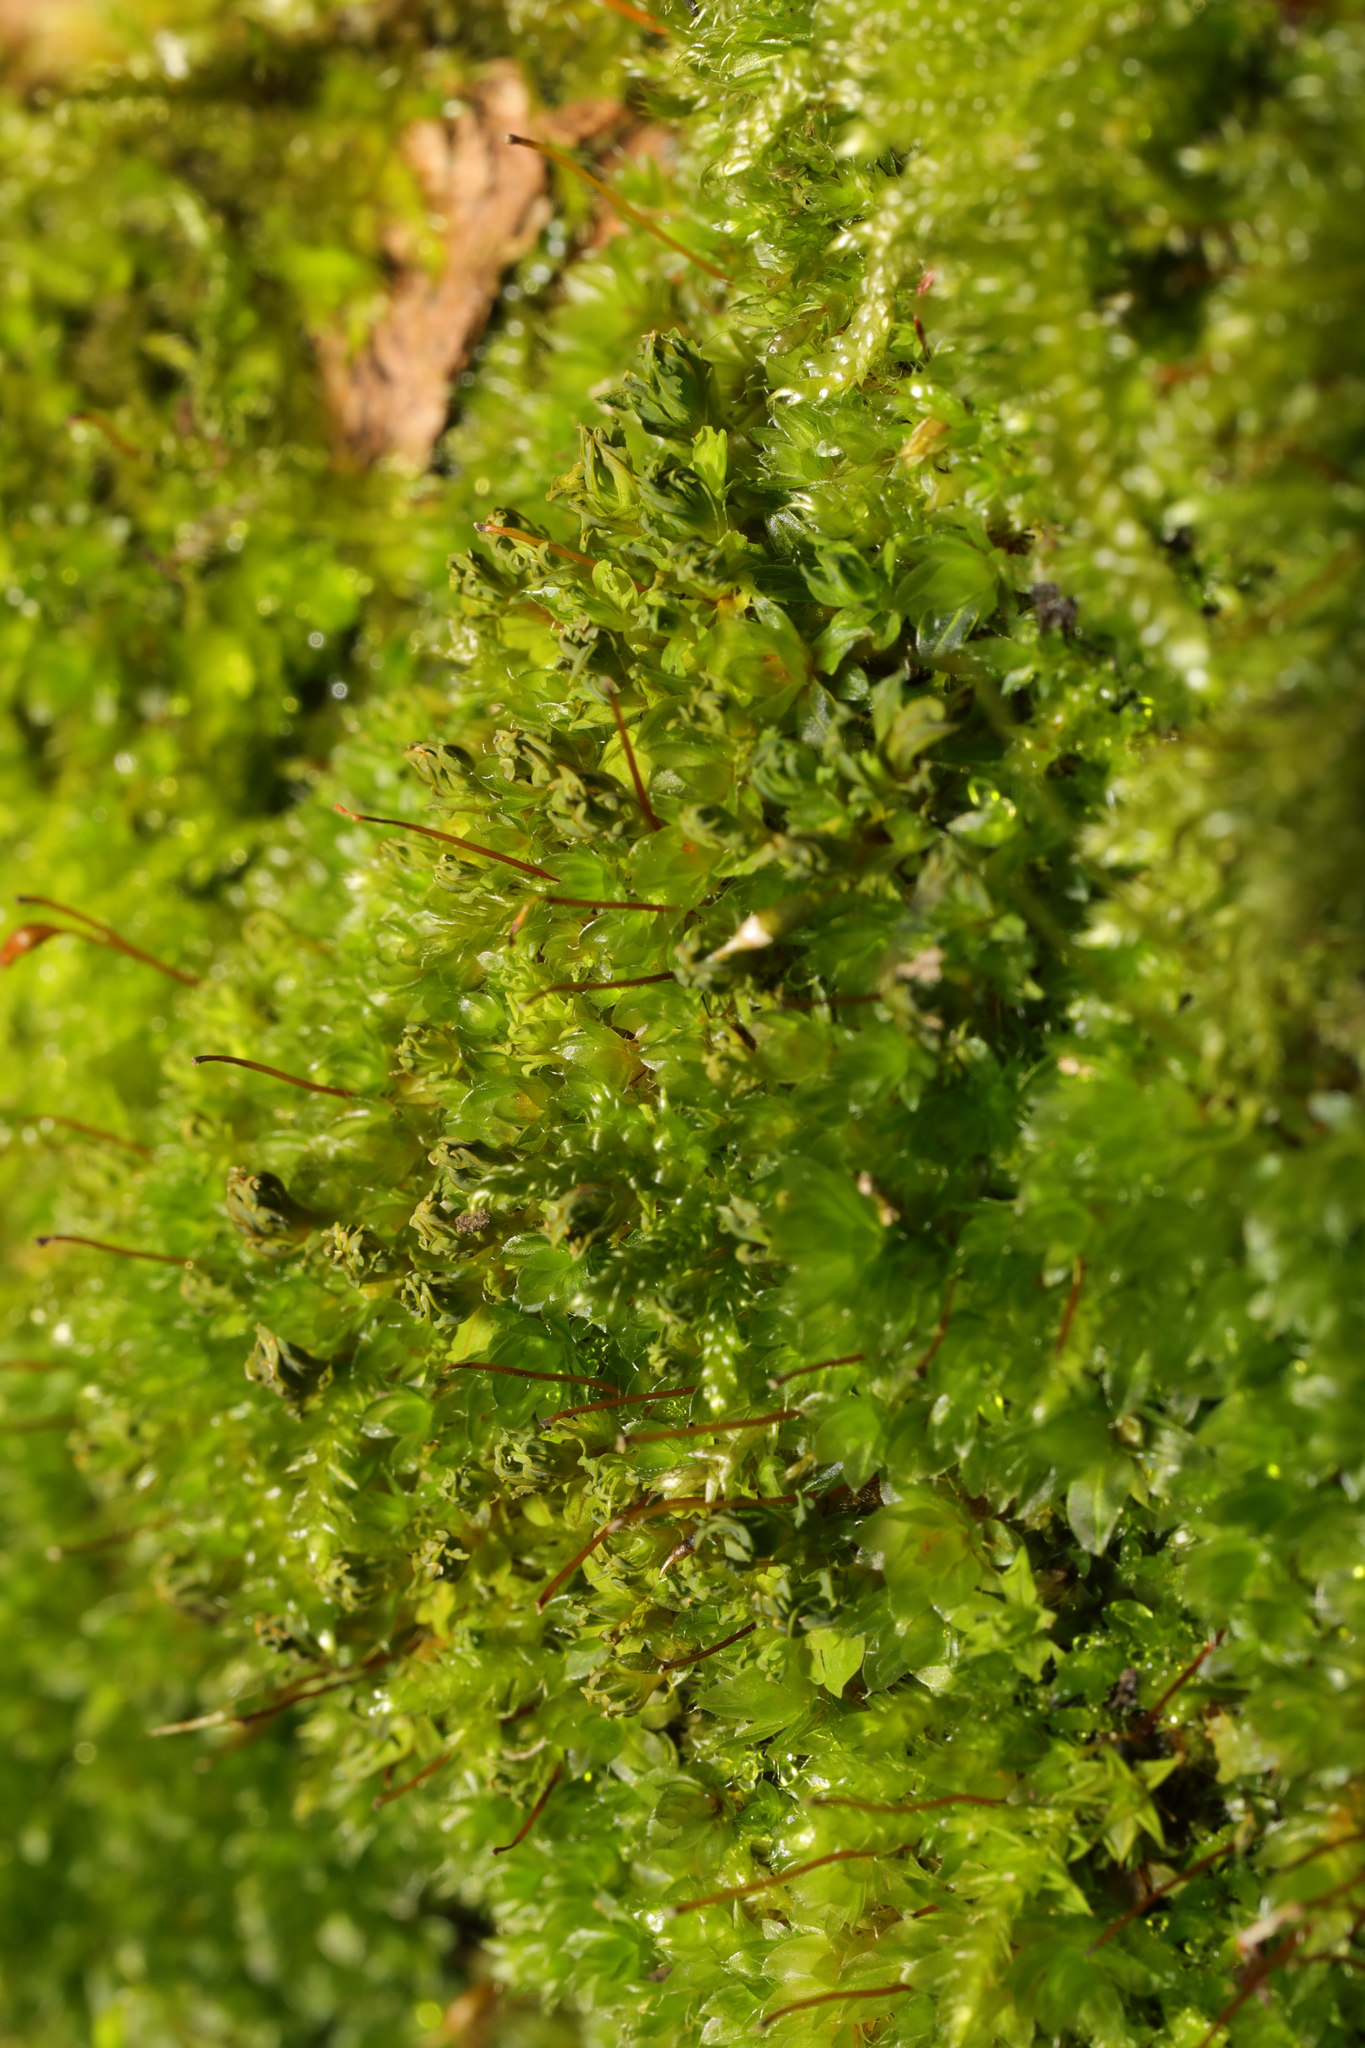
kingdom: Plantae
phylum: Bryophyta
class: Bryopsida
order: Bryales
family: Bryaceae
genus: Rosulabryum
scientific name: Rosulabryum capillare
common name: Capillary thread-moss
